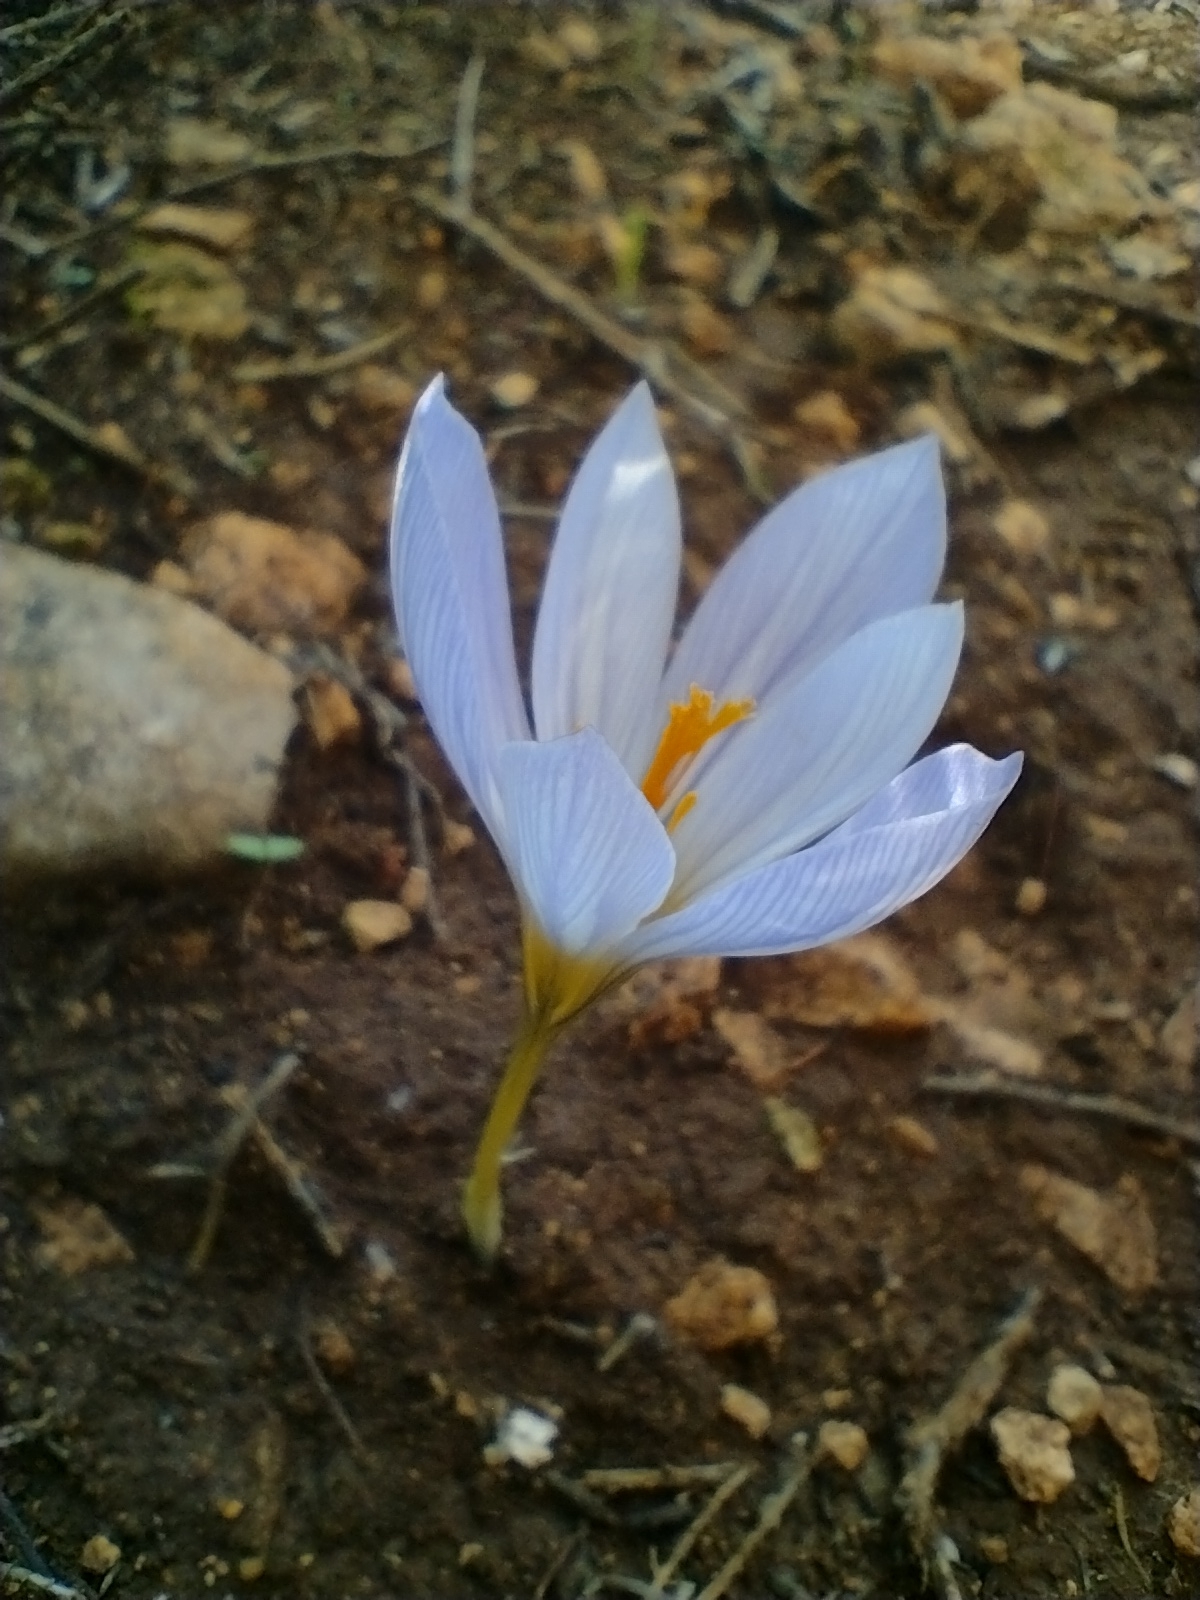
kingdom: Plantae
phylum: Tracheophyta
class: Liliopsida
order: Asparagales
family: Iridaceae
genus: Crocus
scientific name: Crocus mazziaricus
